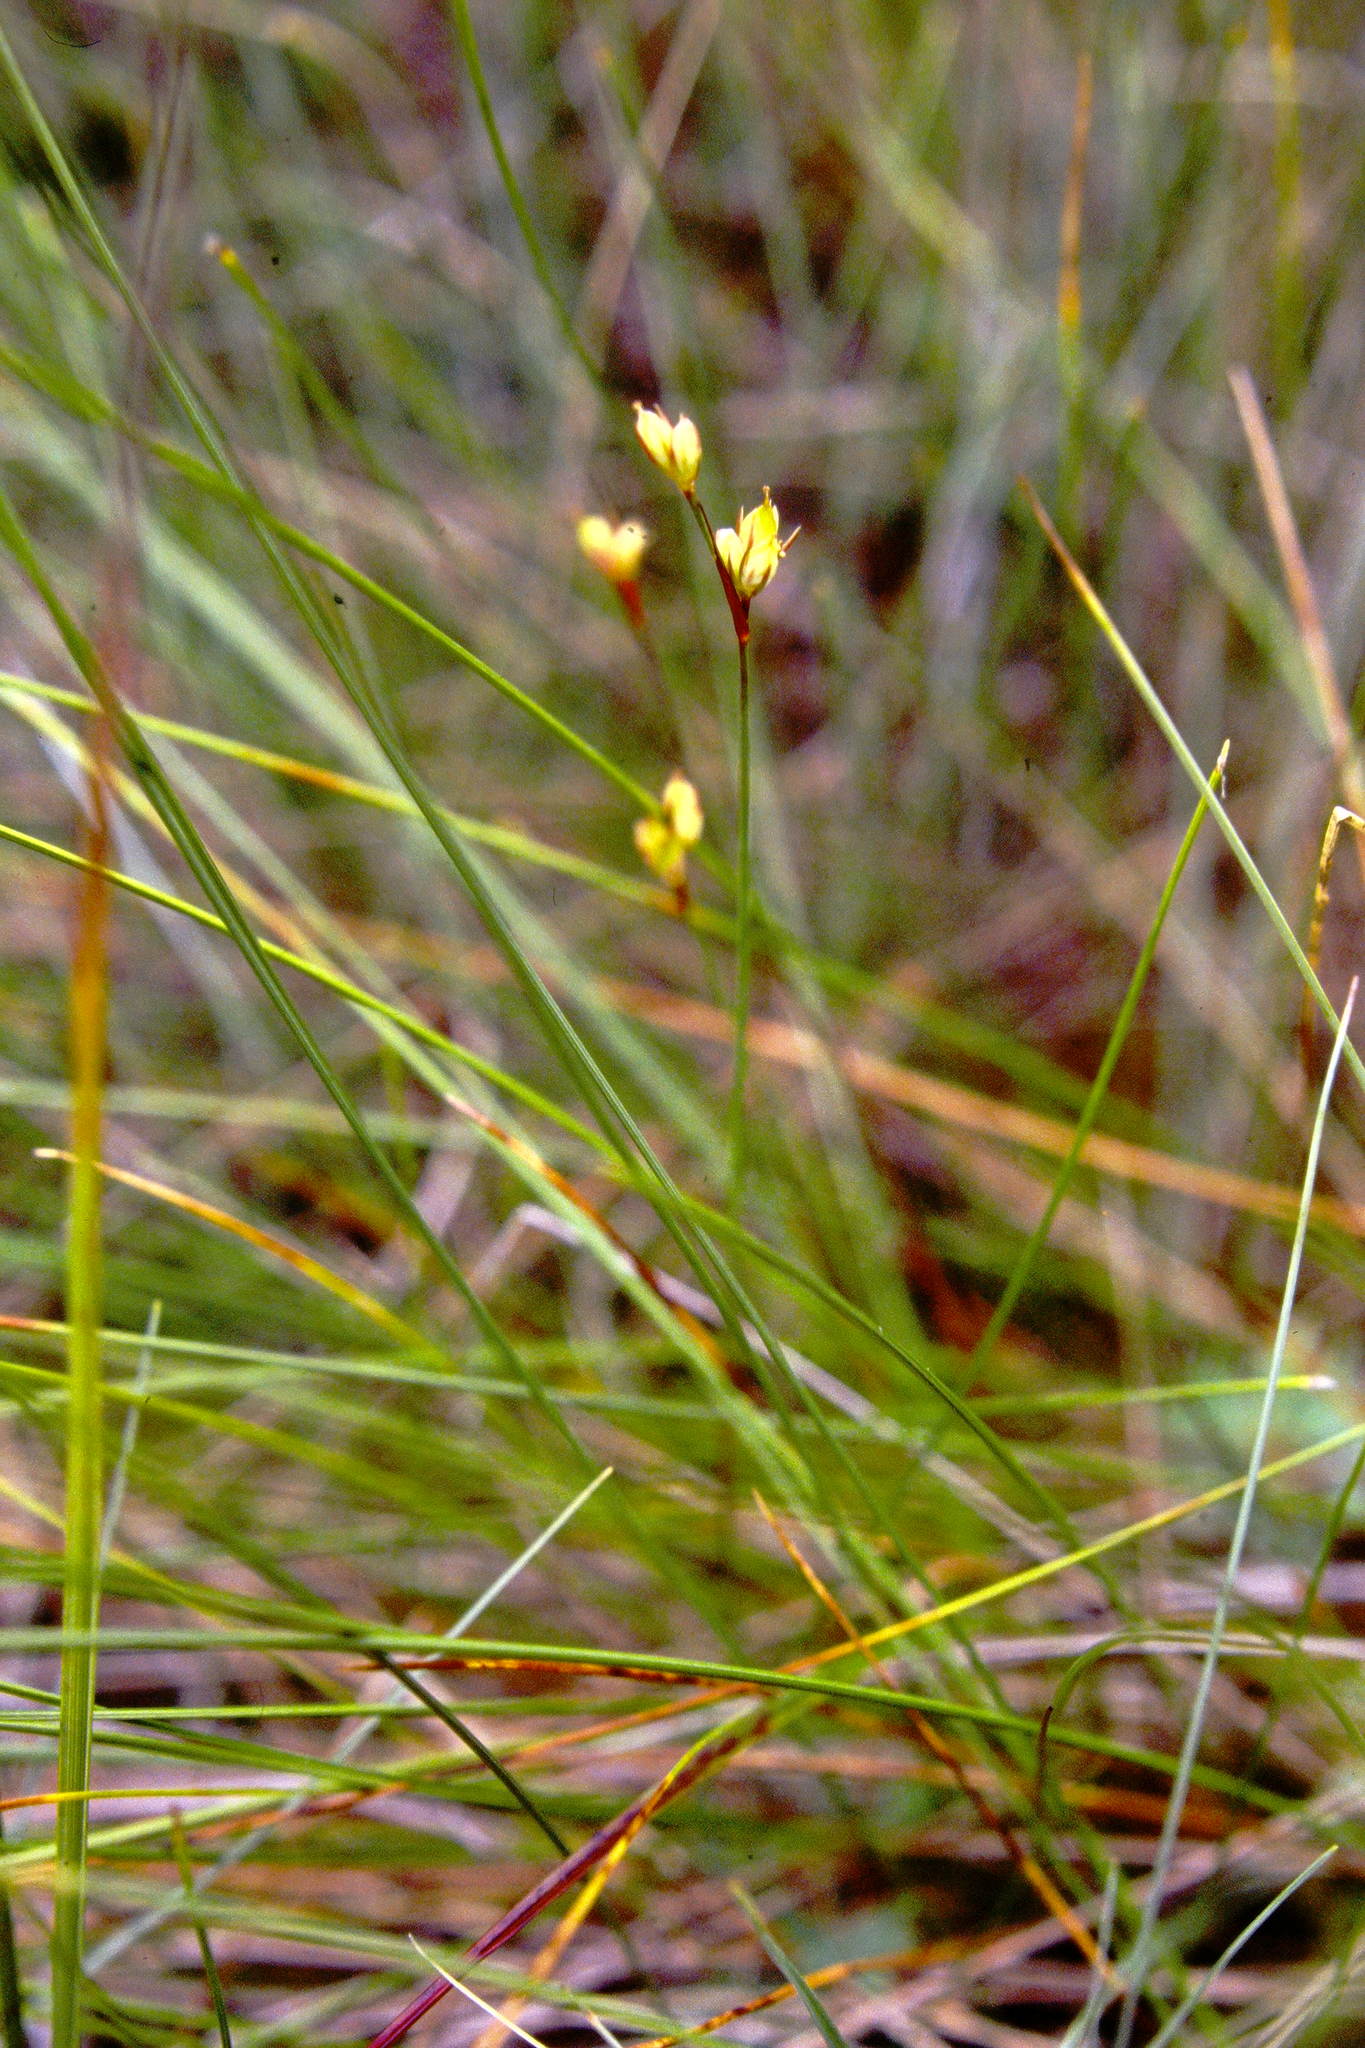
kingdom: Plantae
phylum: Tracheophyta
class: Liliopsida
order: Poales
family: Juncaceae
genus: Juncus
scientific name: Juncus stygius
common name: Bog rush
